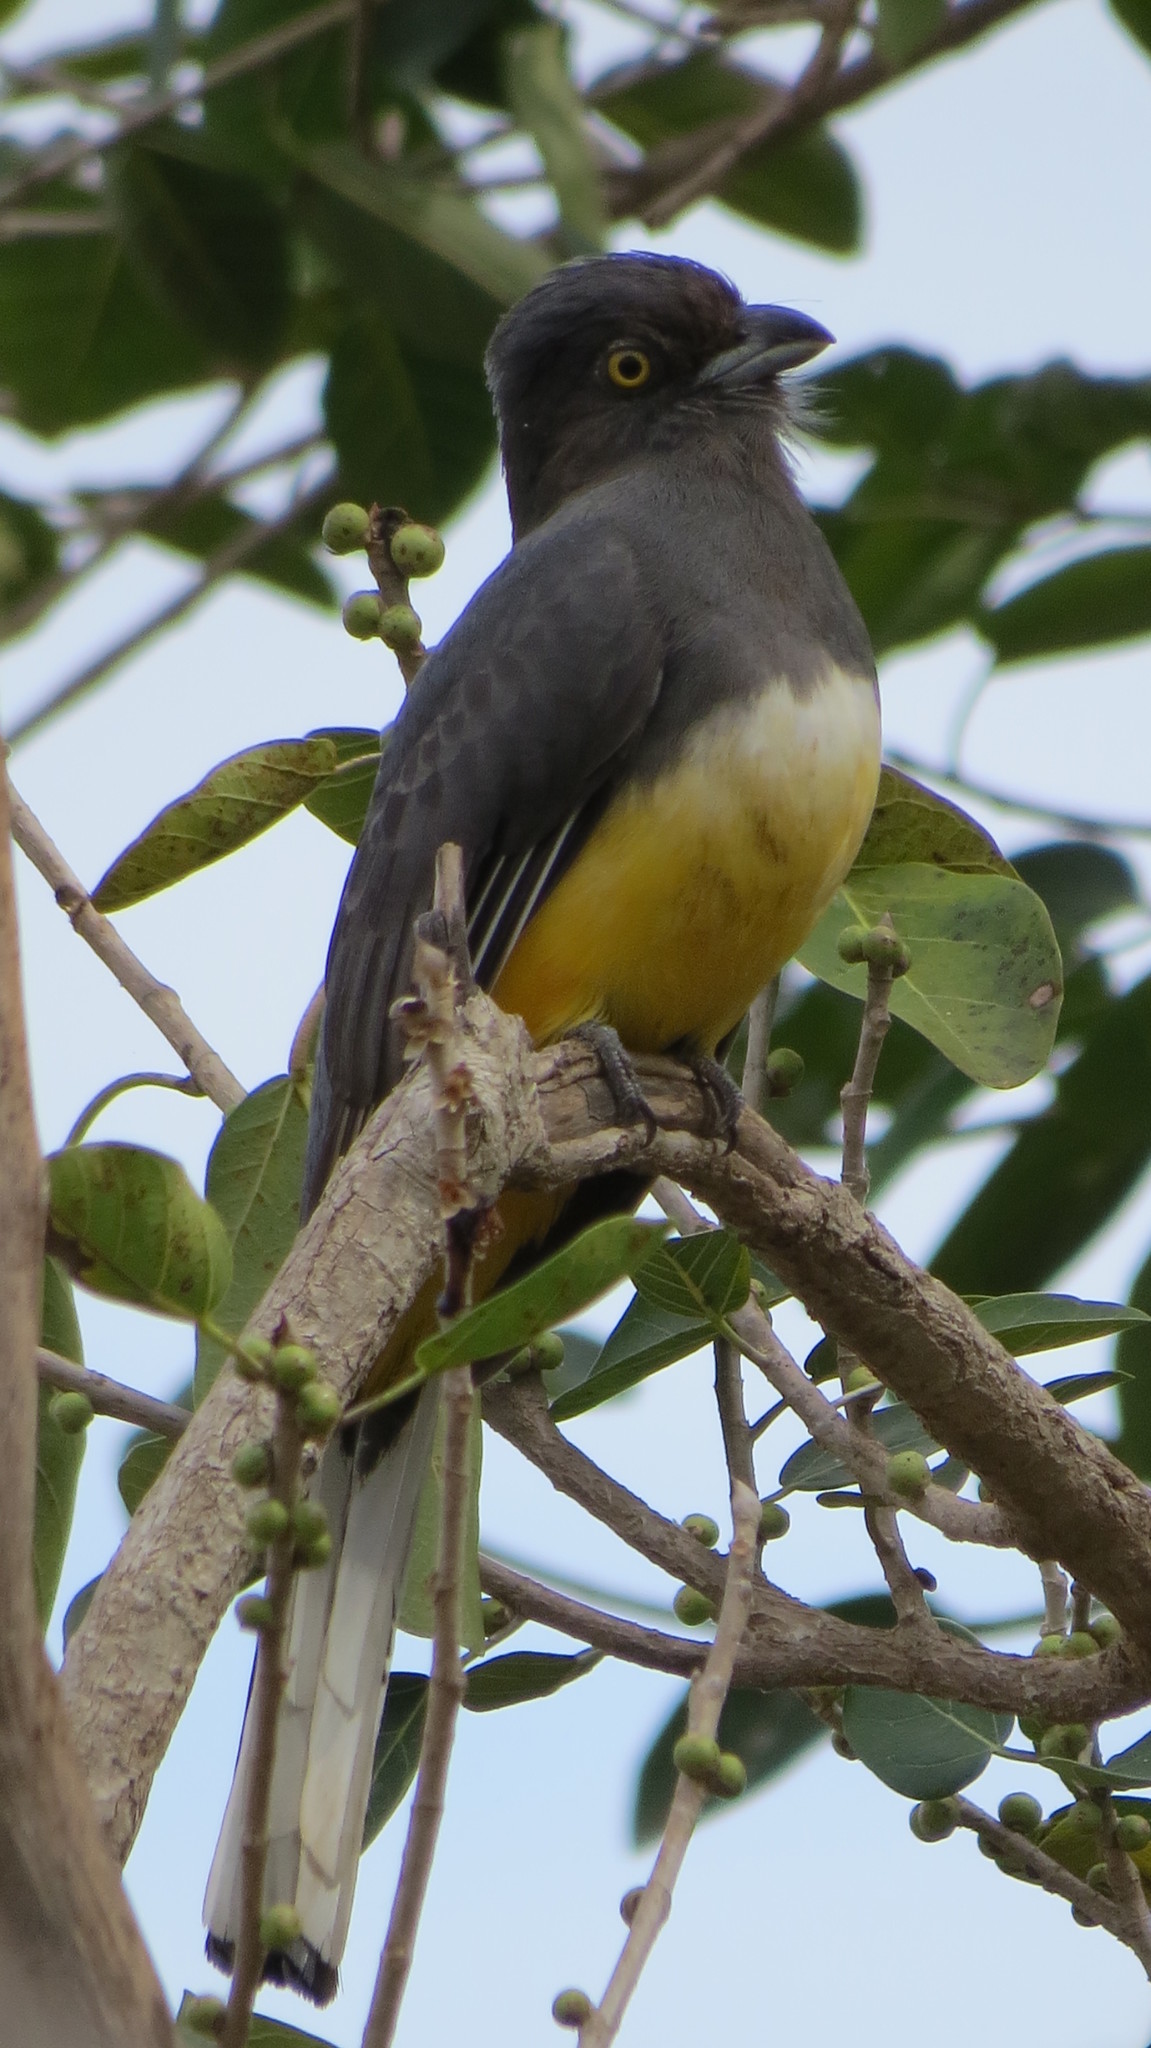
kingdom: Animalia
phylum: Chordata
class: Aves
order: Trogoniformes
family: Trogonidae
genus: Trogon
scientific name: Trogon citreolus
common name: Citreoline trogon
